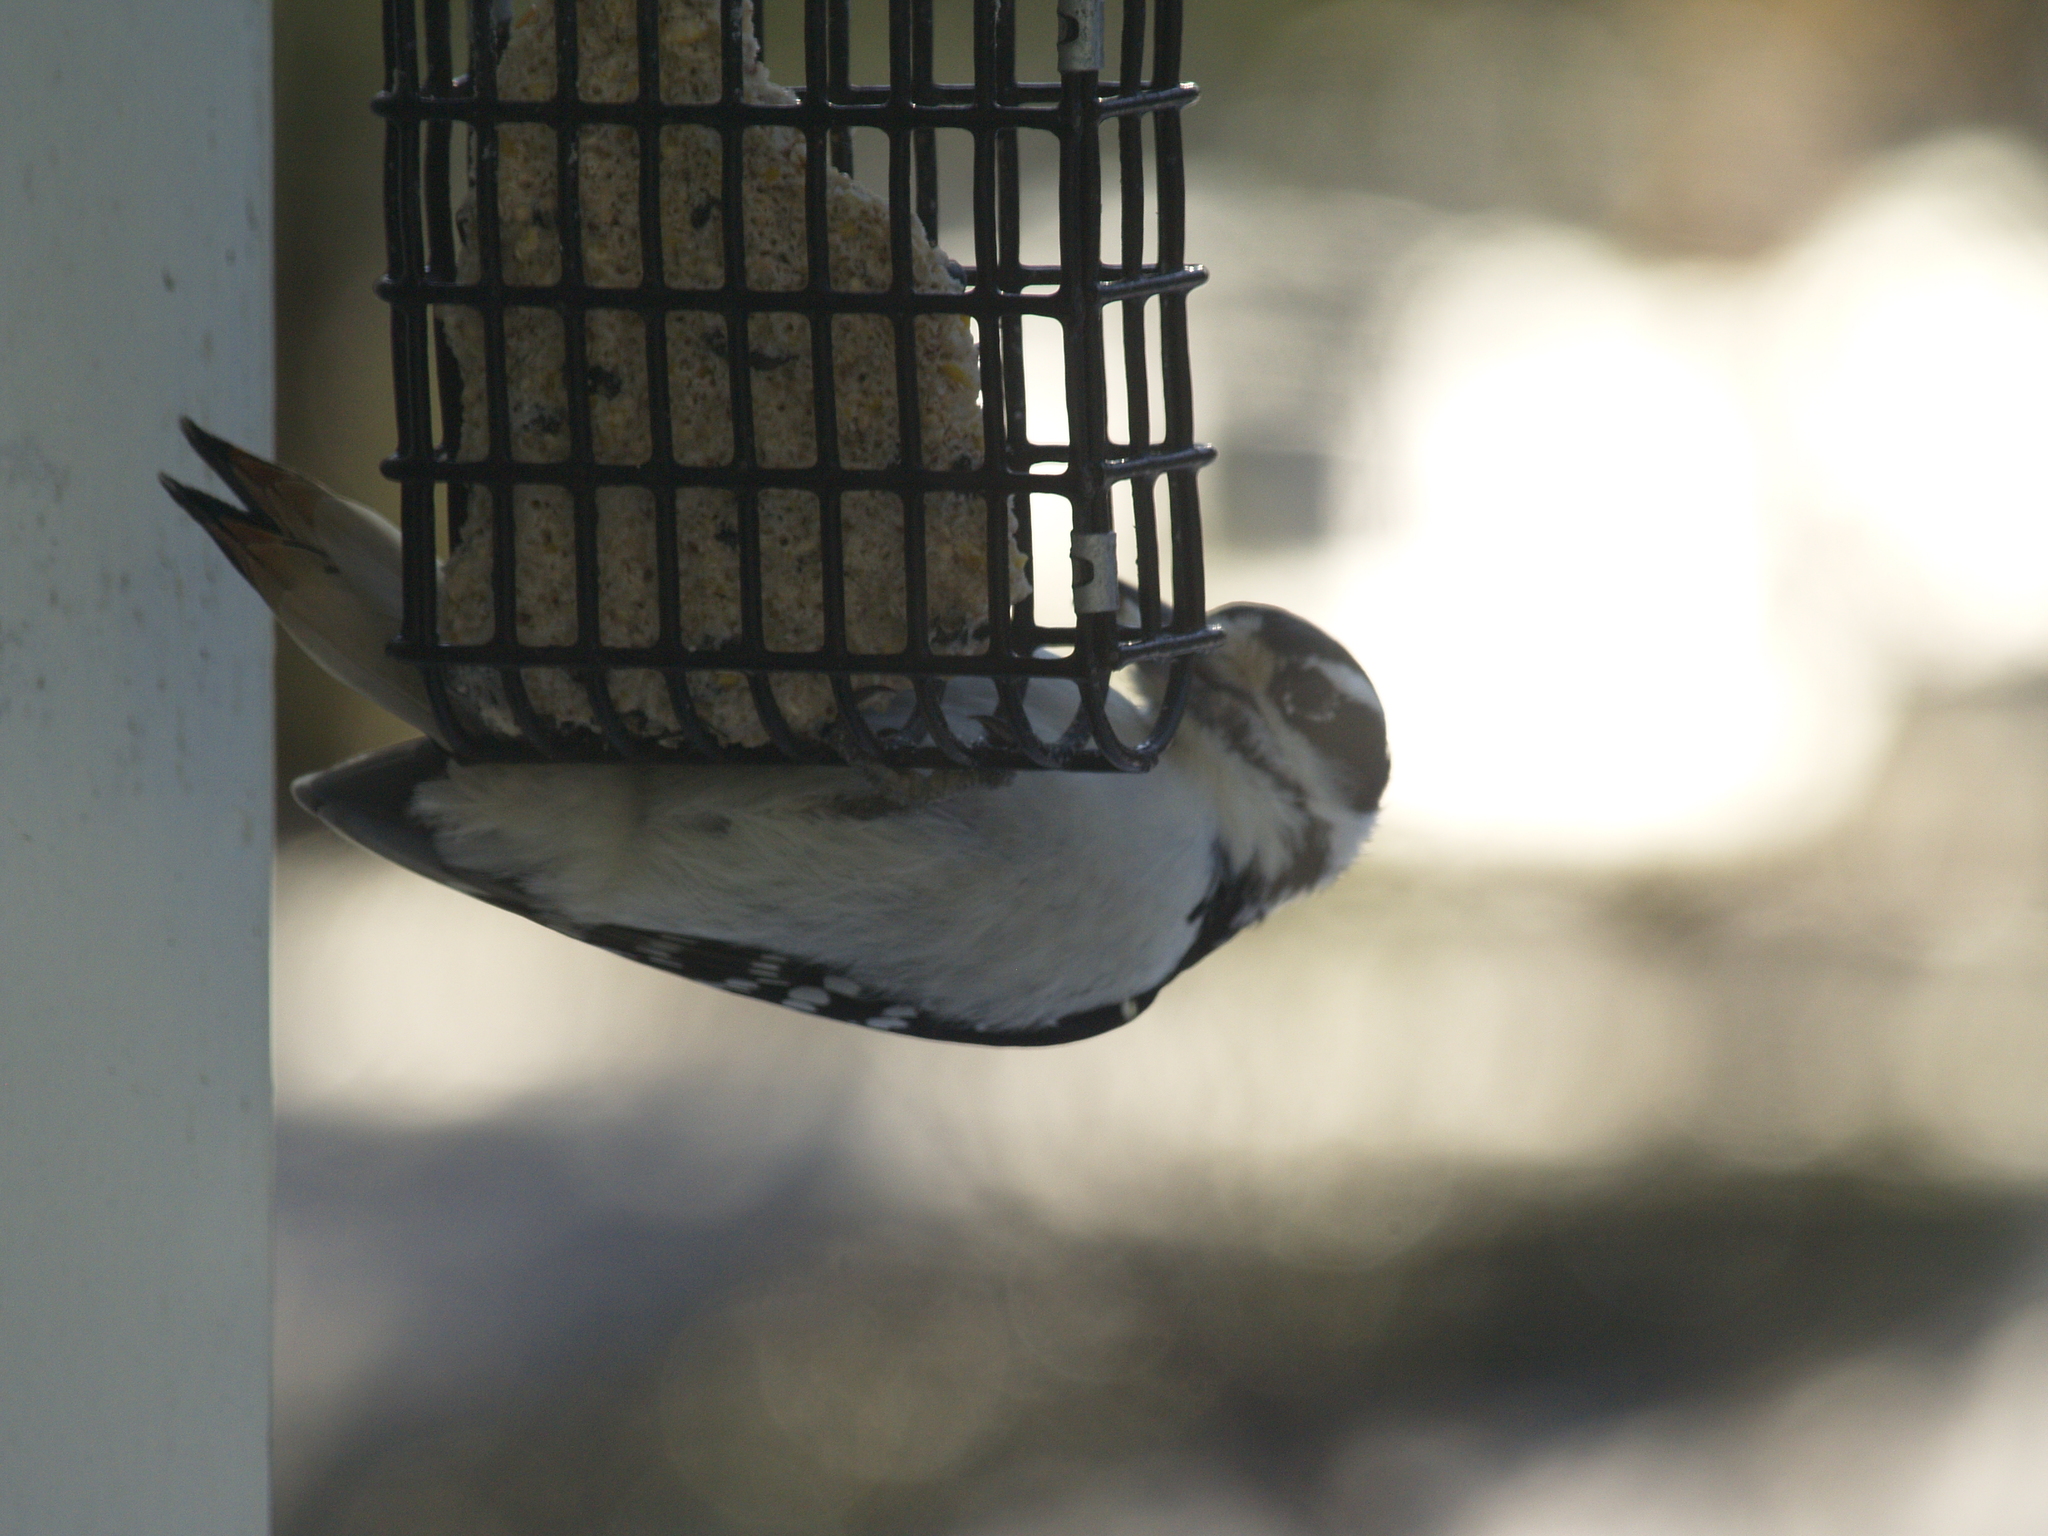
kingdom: Animalia
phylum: Chordata
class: Aves
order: Piciformes
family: Picidae
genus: Leuconotopicus
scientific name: Leuconotopicus villosus
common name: Hairy woodpecker
